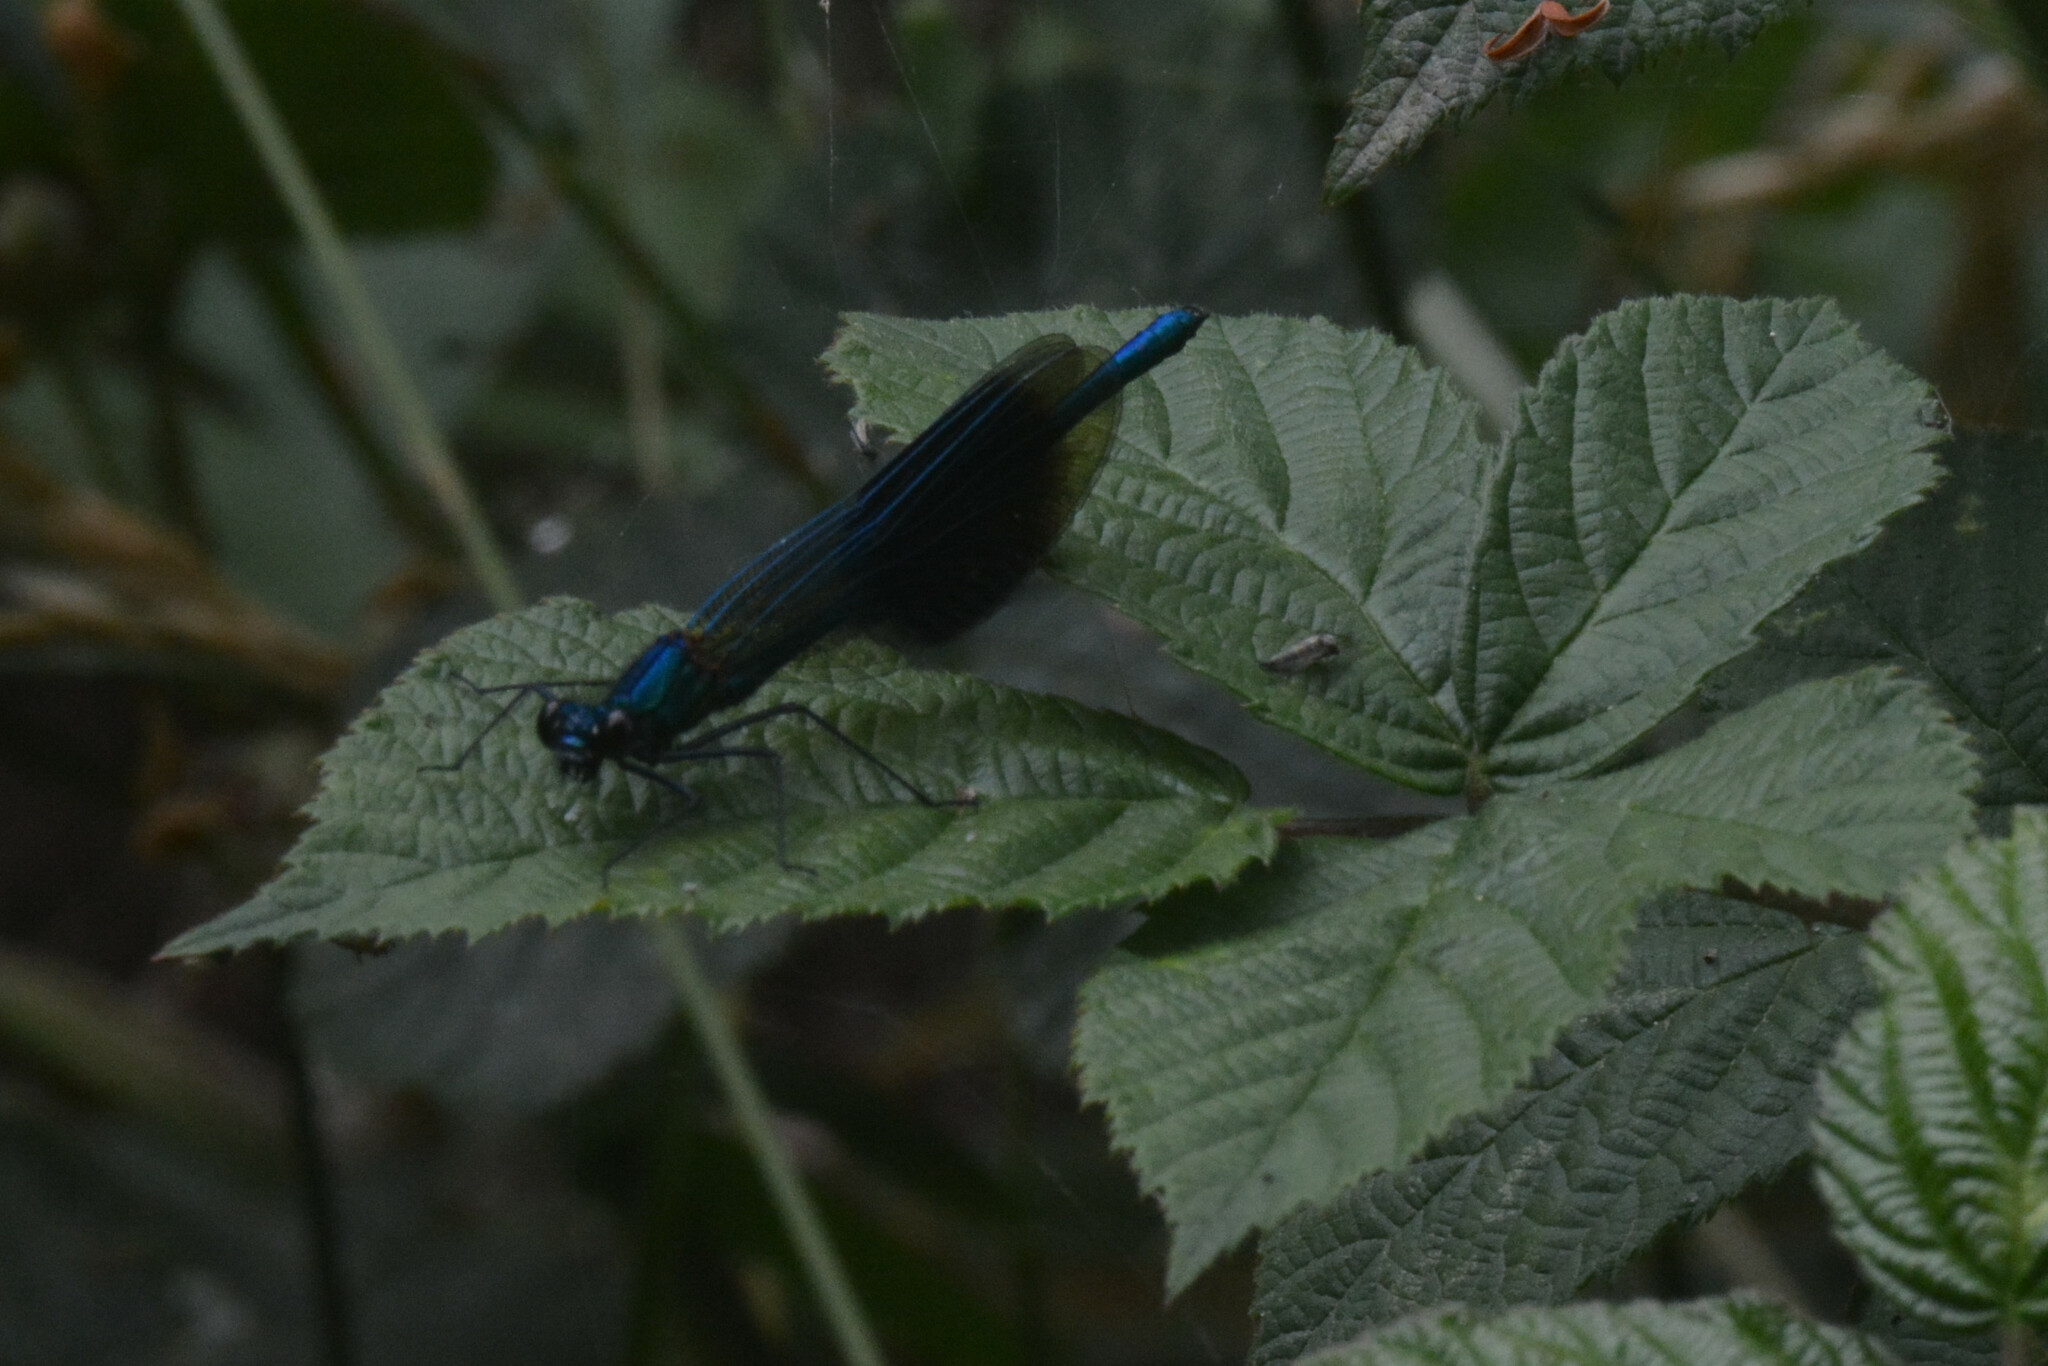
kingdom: Animalia
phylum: Arthropoda
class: Insecta
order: Odonata
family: Calopterygidae
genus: Calopteryx
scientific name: Calopteryx splendens
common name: Banded demoiselle
